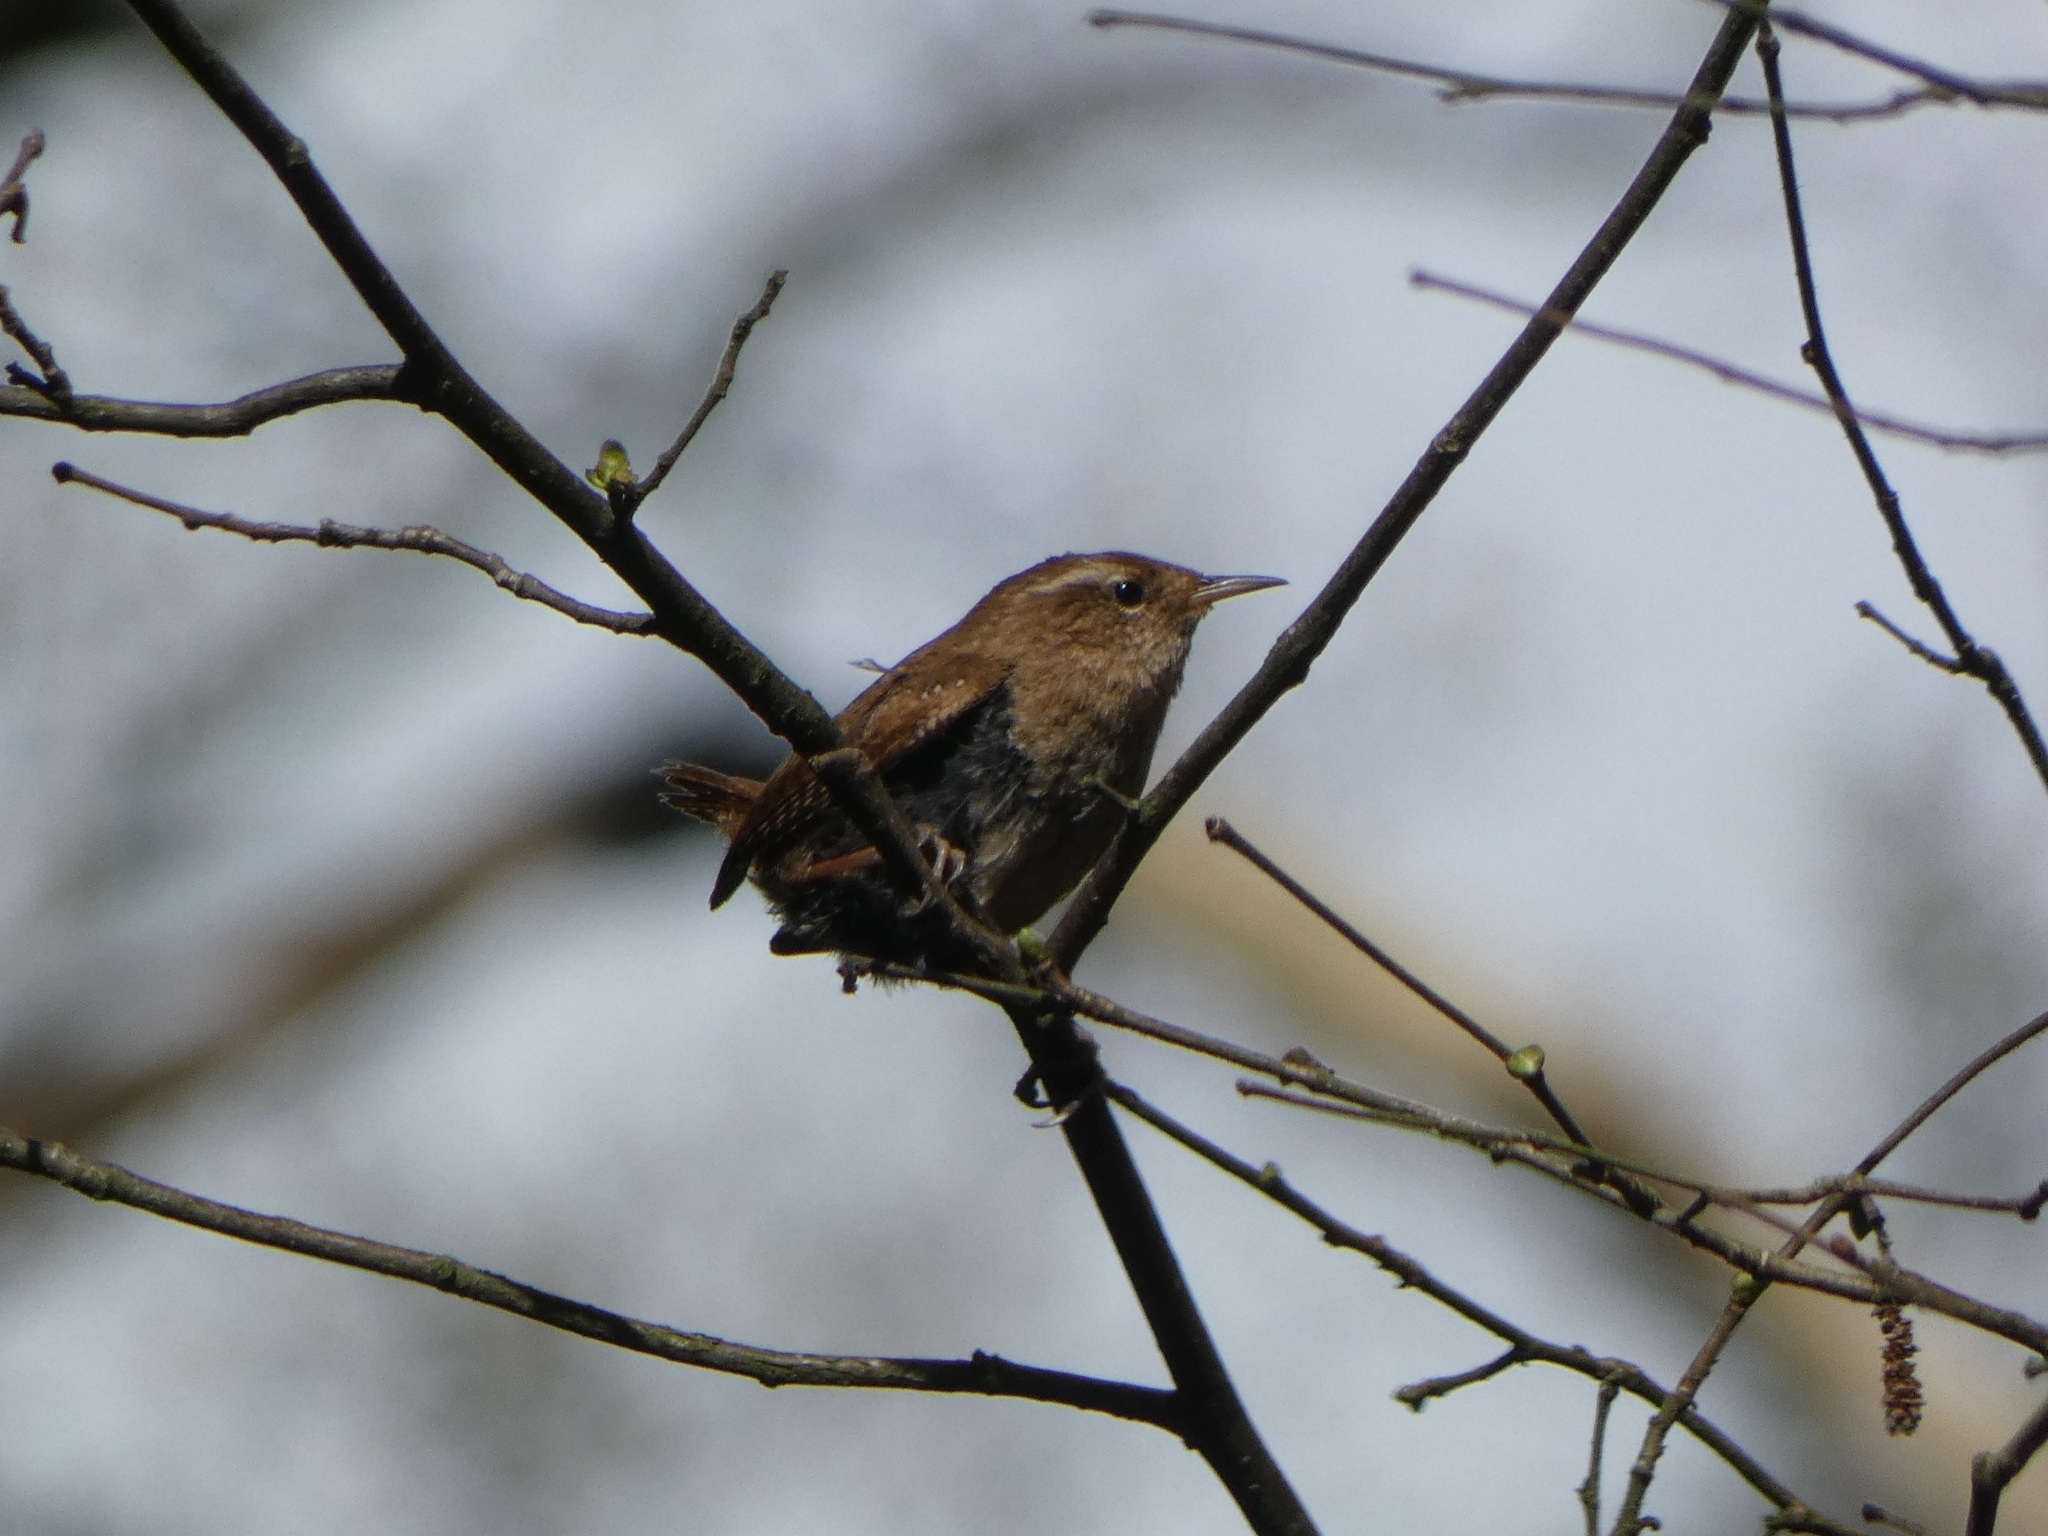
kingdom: Animalia
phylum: Chordata
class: Aves
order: Passeriformes
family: Troglodytidae
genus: Troglodytes
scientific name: Troglodytes troglodytes
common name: Eurasian wren
